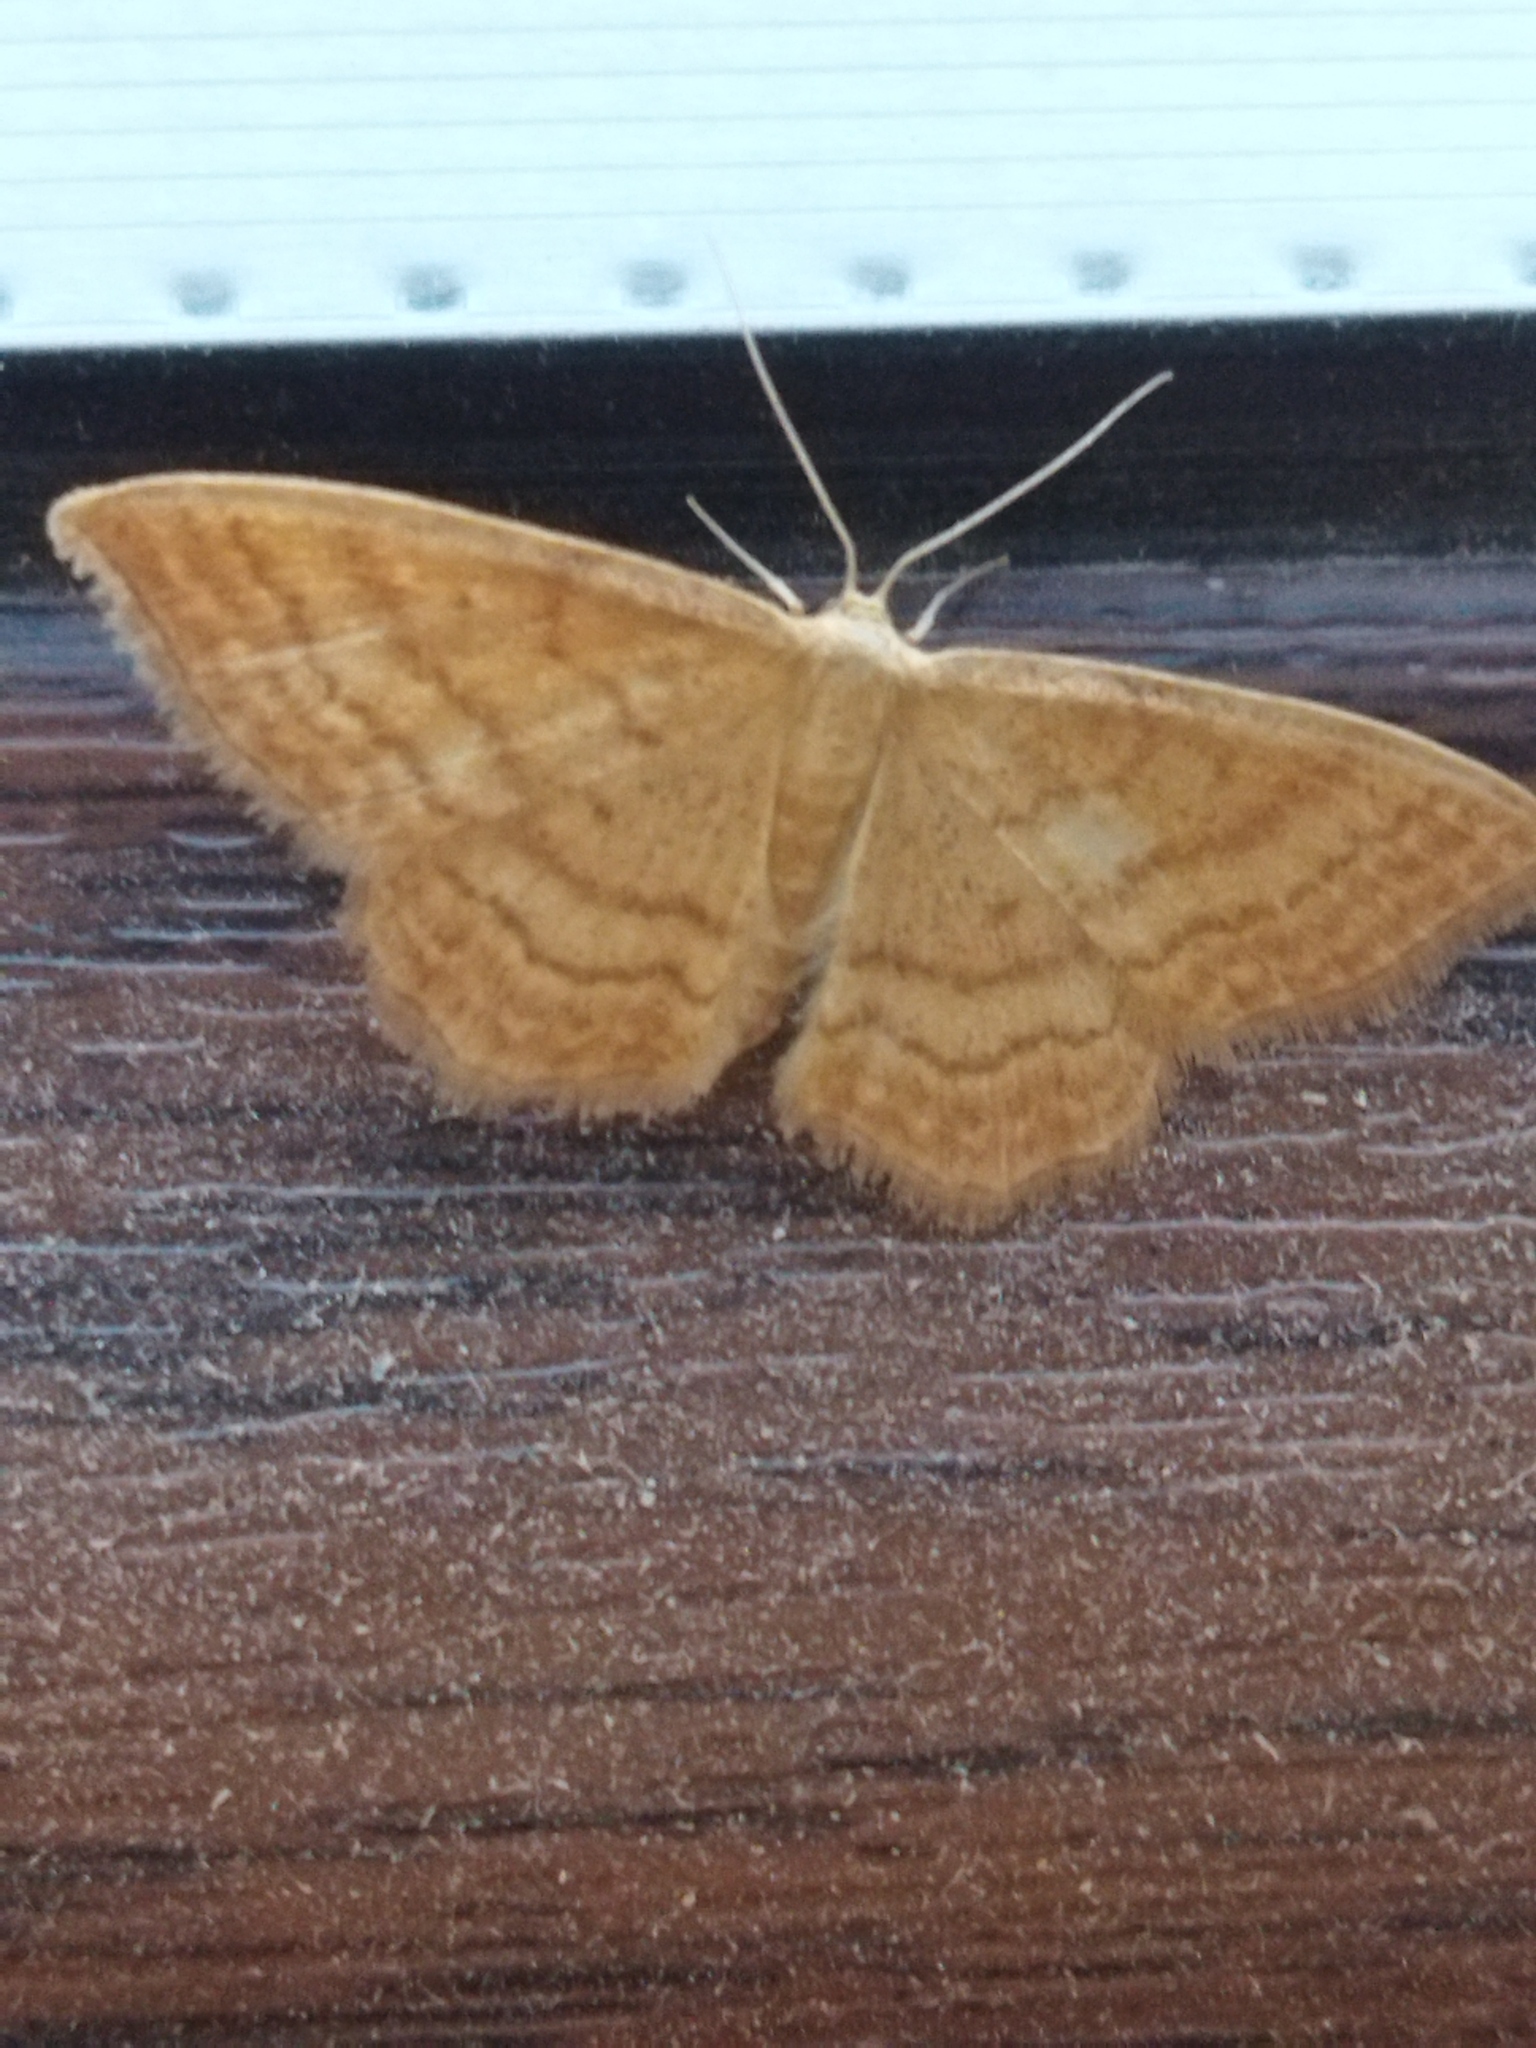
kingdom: Animalia
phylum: Arthropoda
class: Insecta
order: Lepidoptera
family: Geometridae
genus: Idaea
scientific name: Idaea ochrata
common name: Bright wave
